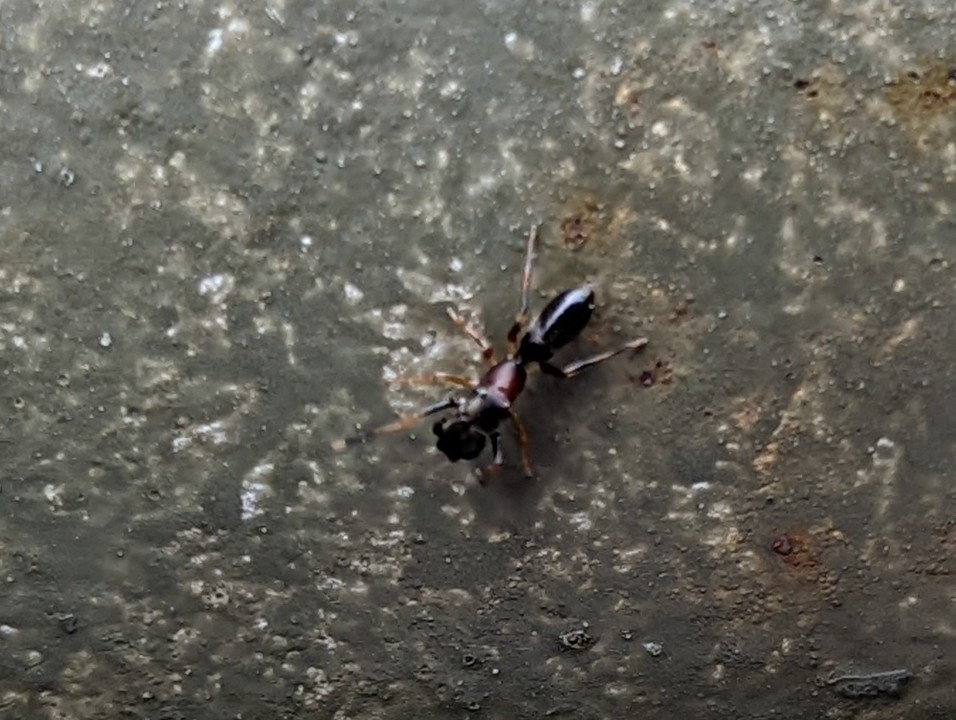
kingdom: Animalia
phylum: Arthropoda
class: Arachnida
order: Araneae
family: Salticidae
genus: Myrmarachne
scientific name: Myrmarachne formicaria
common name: Ant mimic jumping spider
